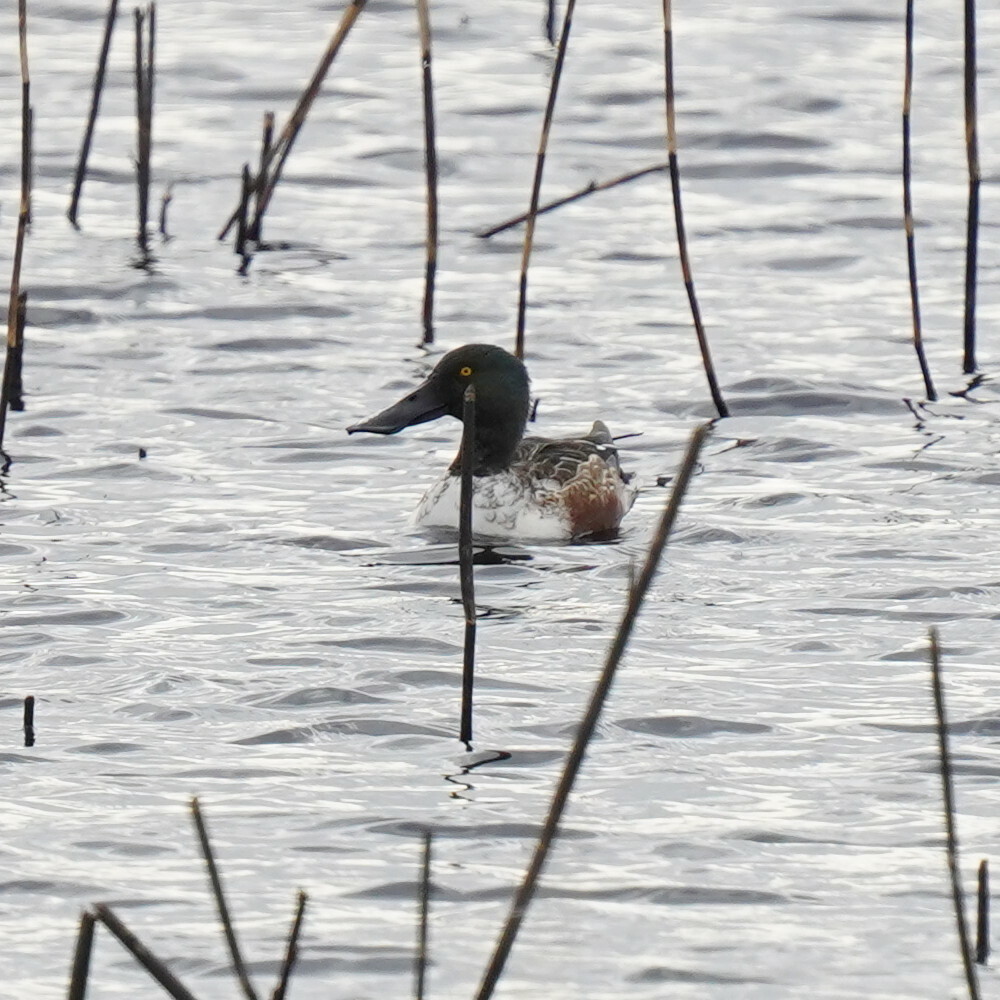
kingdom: Animalia
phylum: Chordata
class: Aves
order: Anseriformes
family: Anatidae
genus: Spatula
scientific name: Spatula clypeata
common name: Northern shoveler
